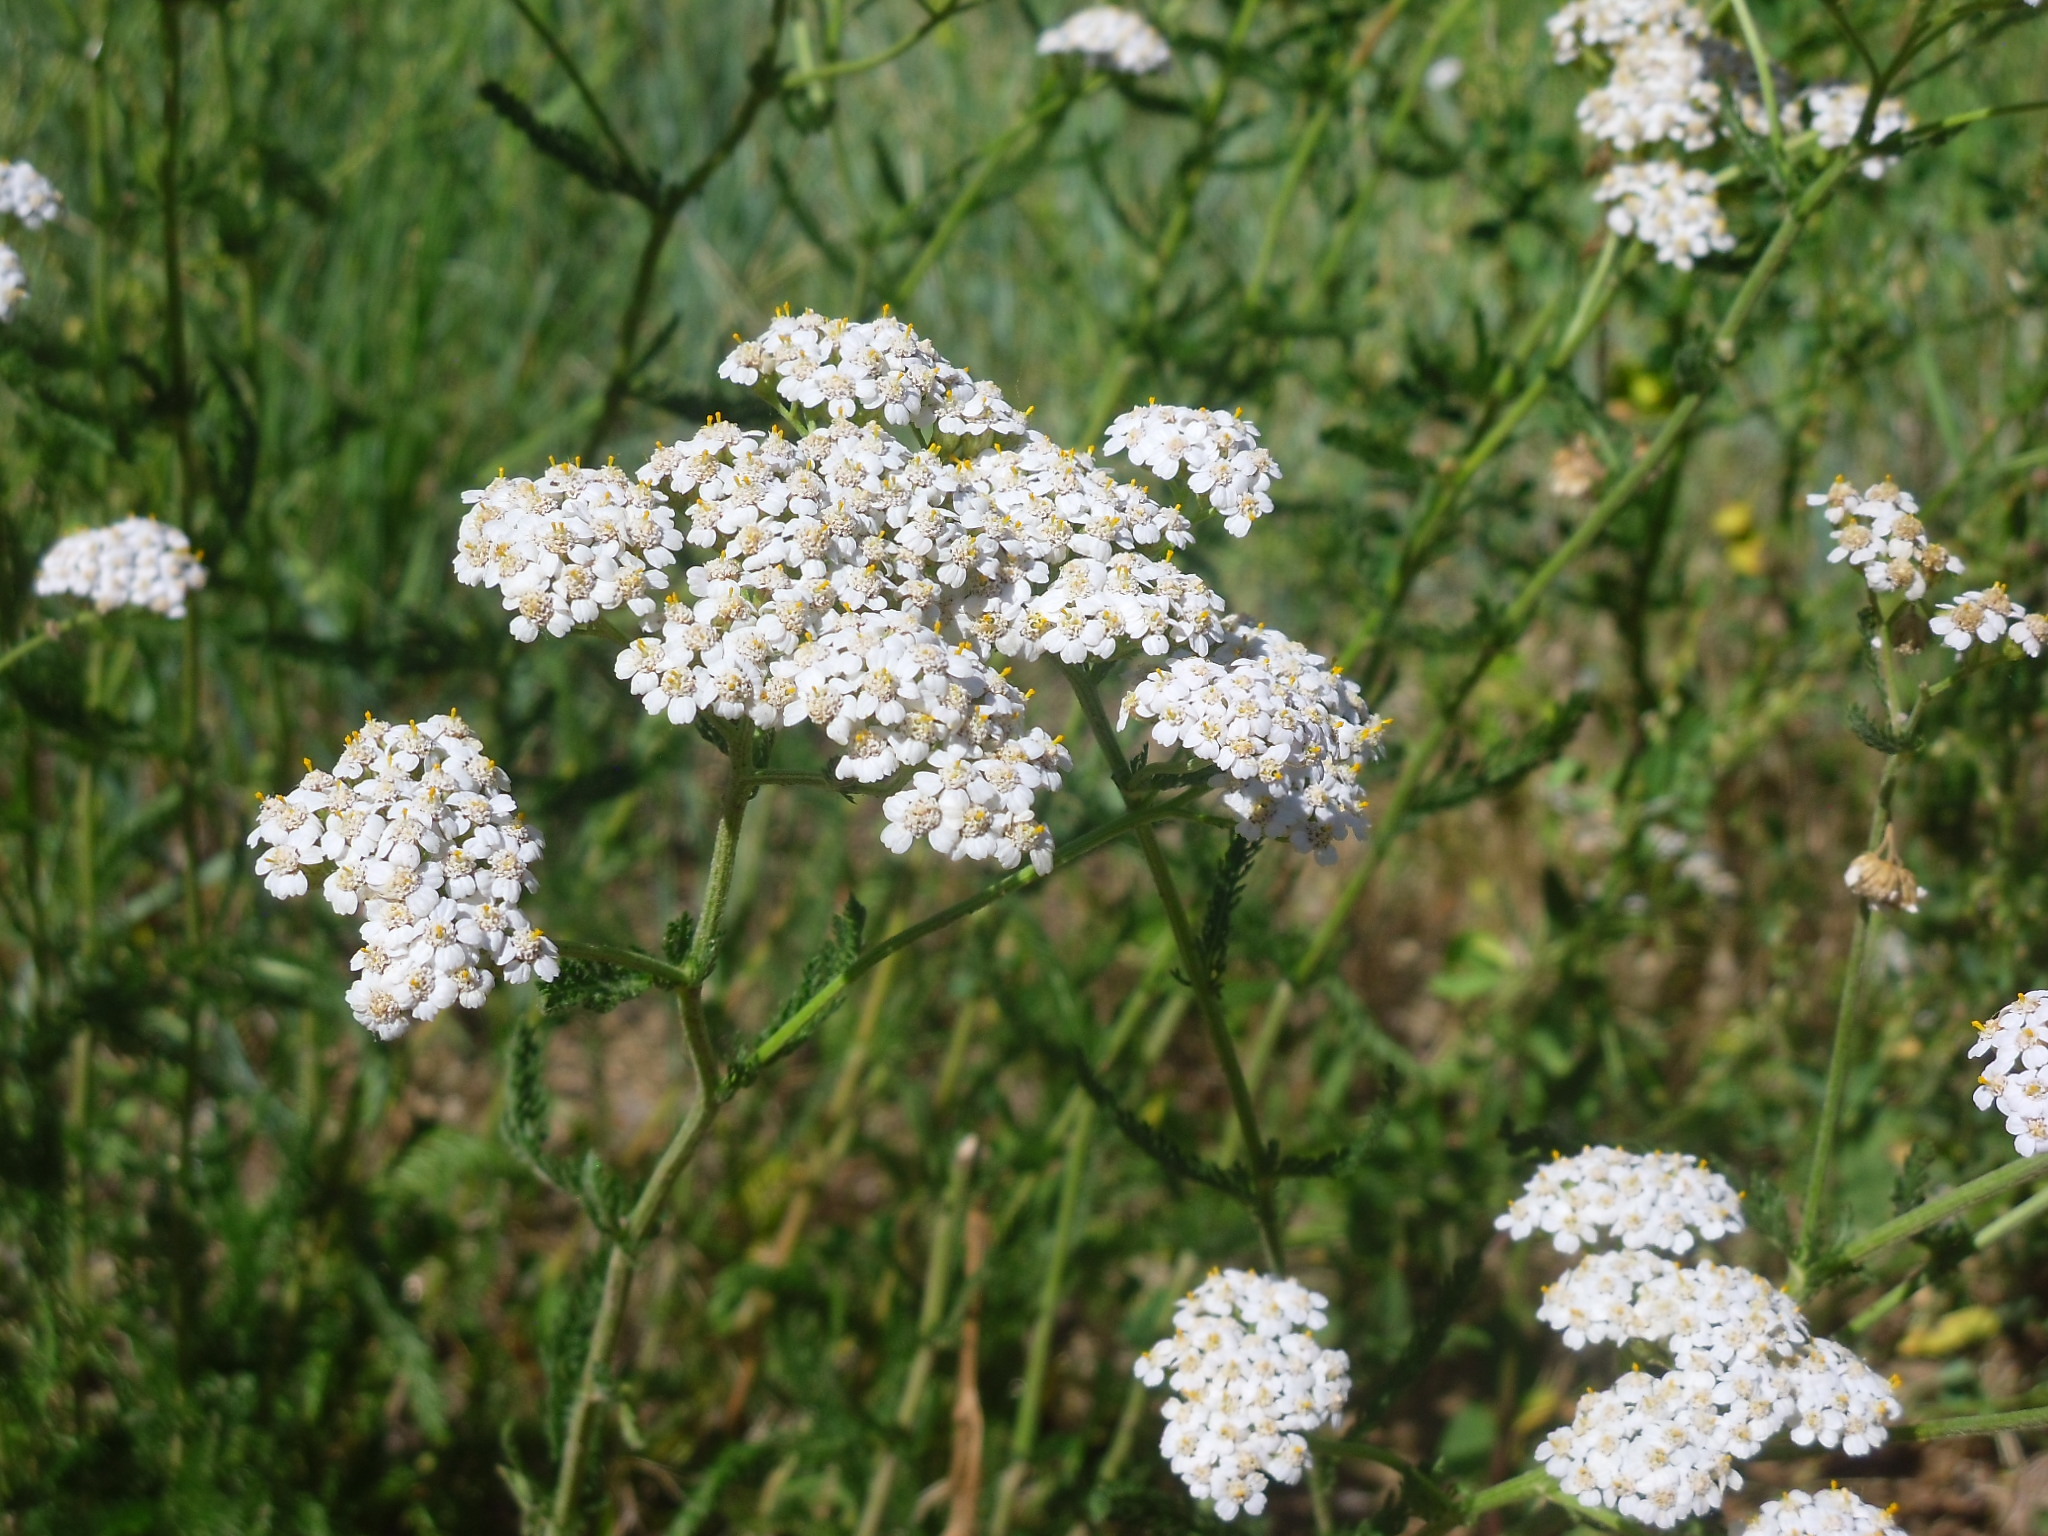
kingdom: Plantae
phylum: Tracheophyta
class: Magnoliopsida
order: Asterales
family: Asteraceae
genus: Achillea
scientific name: Achillea millefolium
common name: Yarrow
